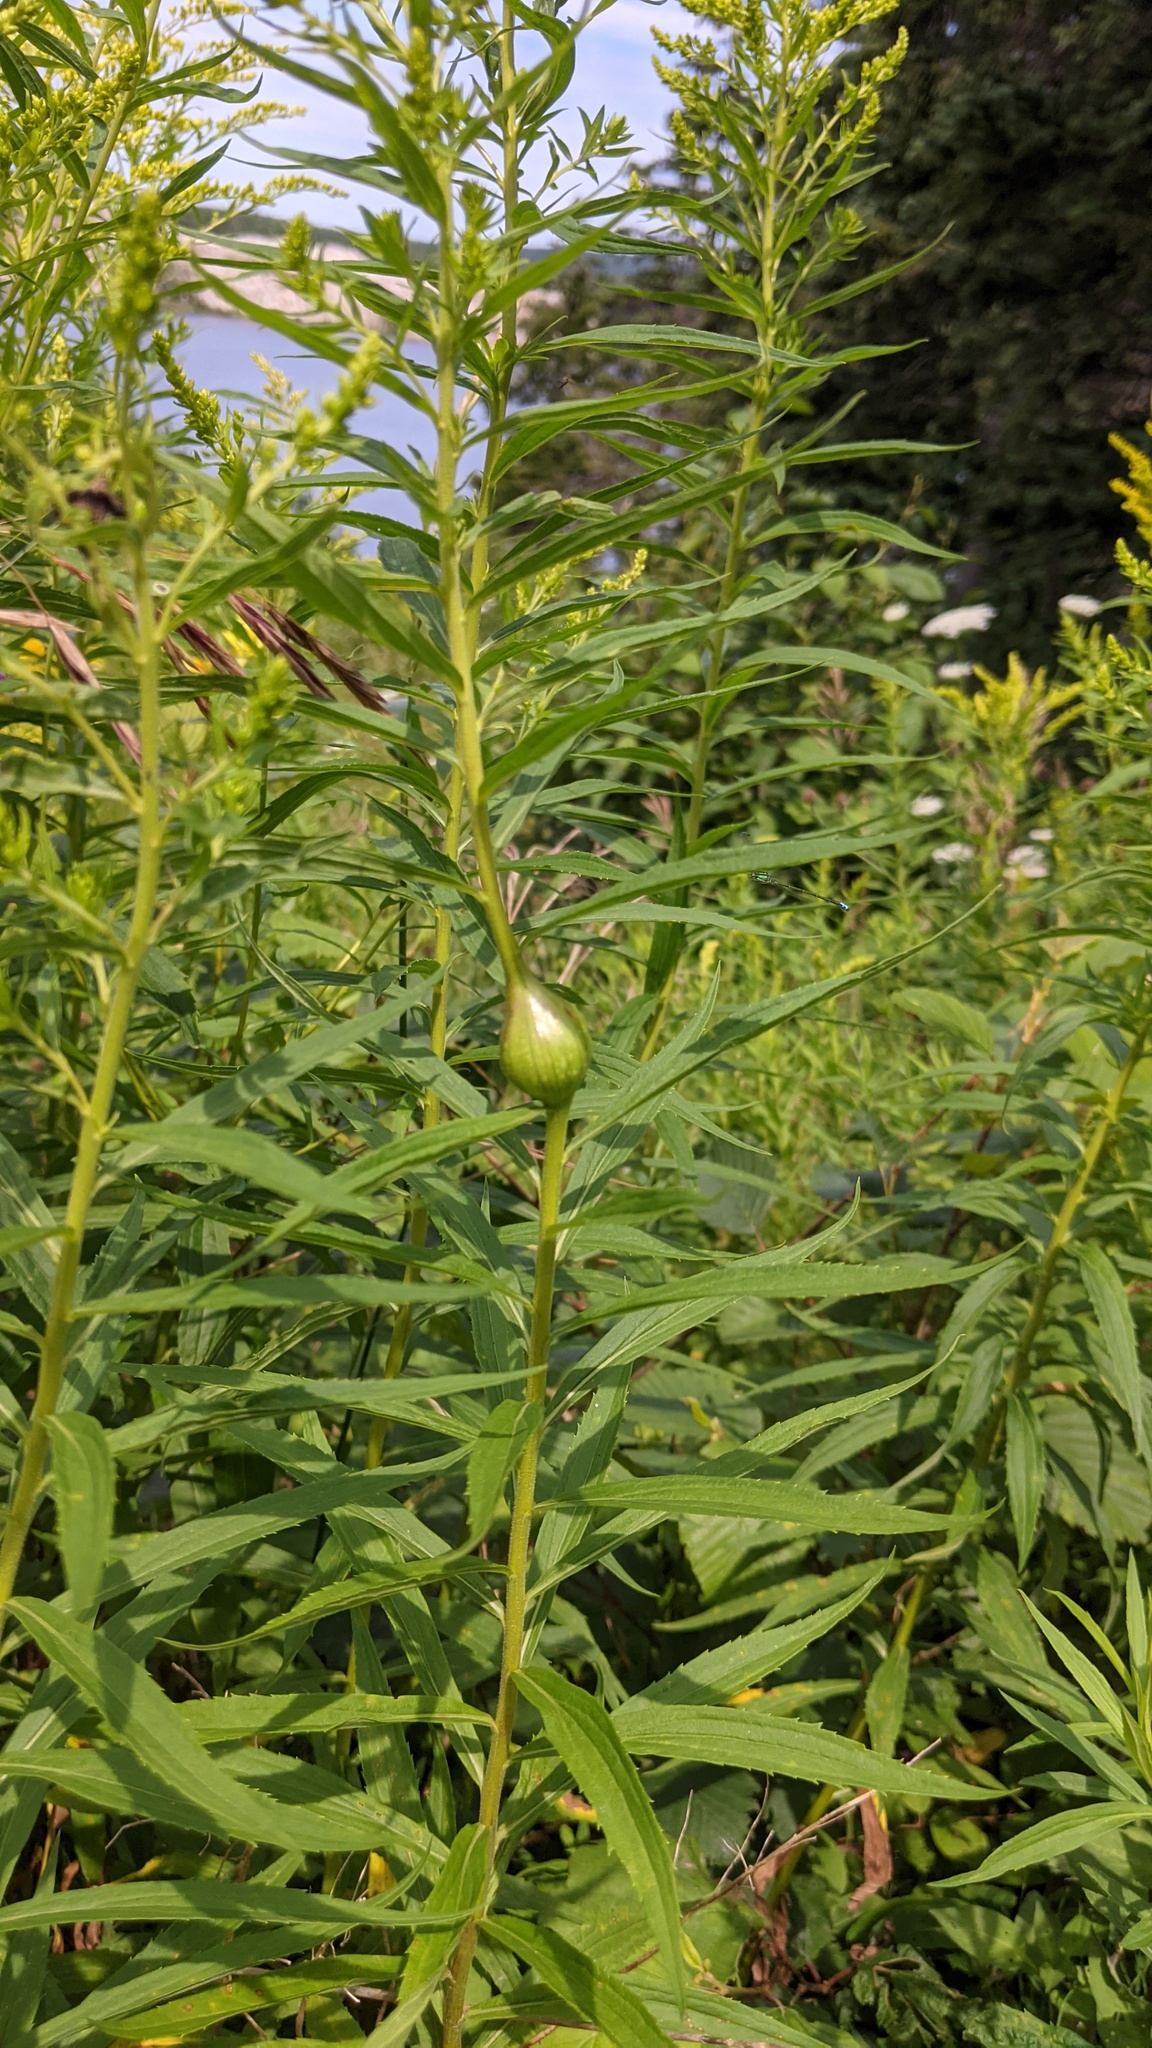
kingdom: Animalia
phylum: Arthropoda
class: Insecta
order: Diptera
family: Tephritidae
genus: Eurosta
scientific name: Eurosta solidaginis
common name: Goldenrod gall fly
